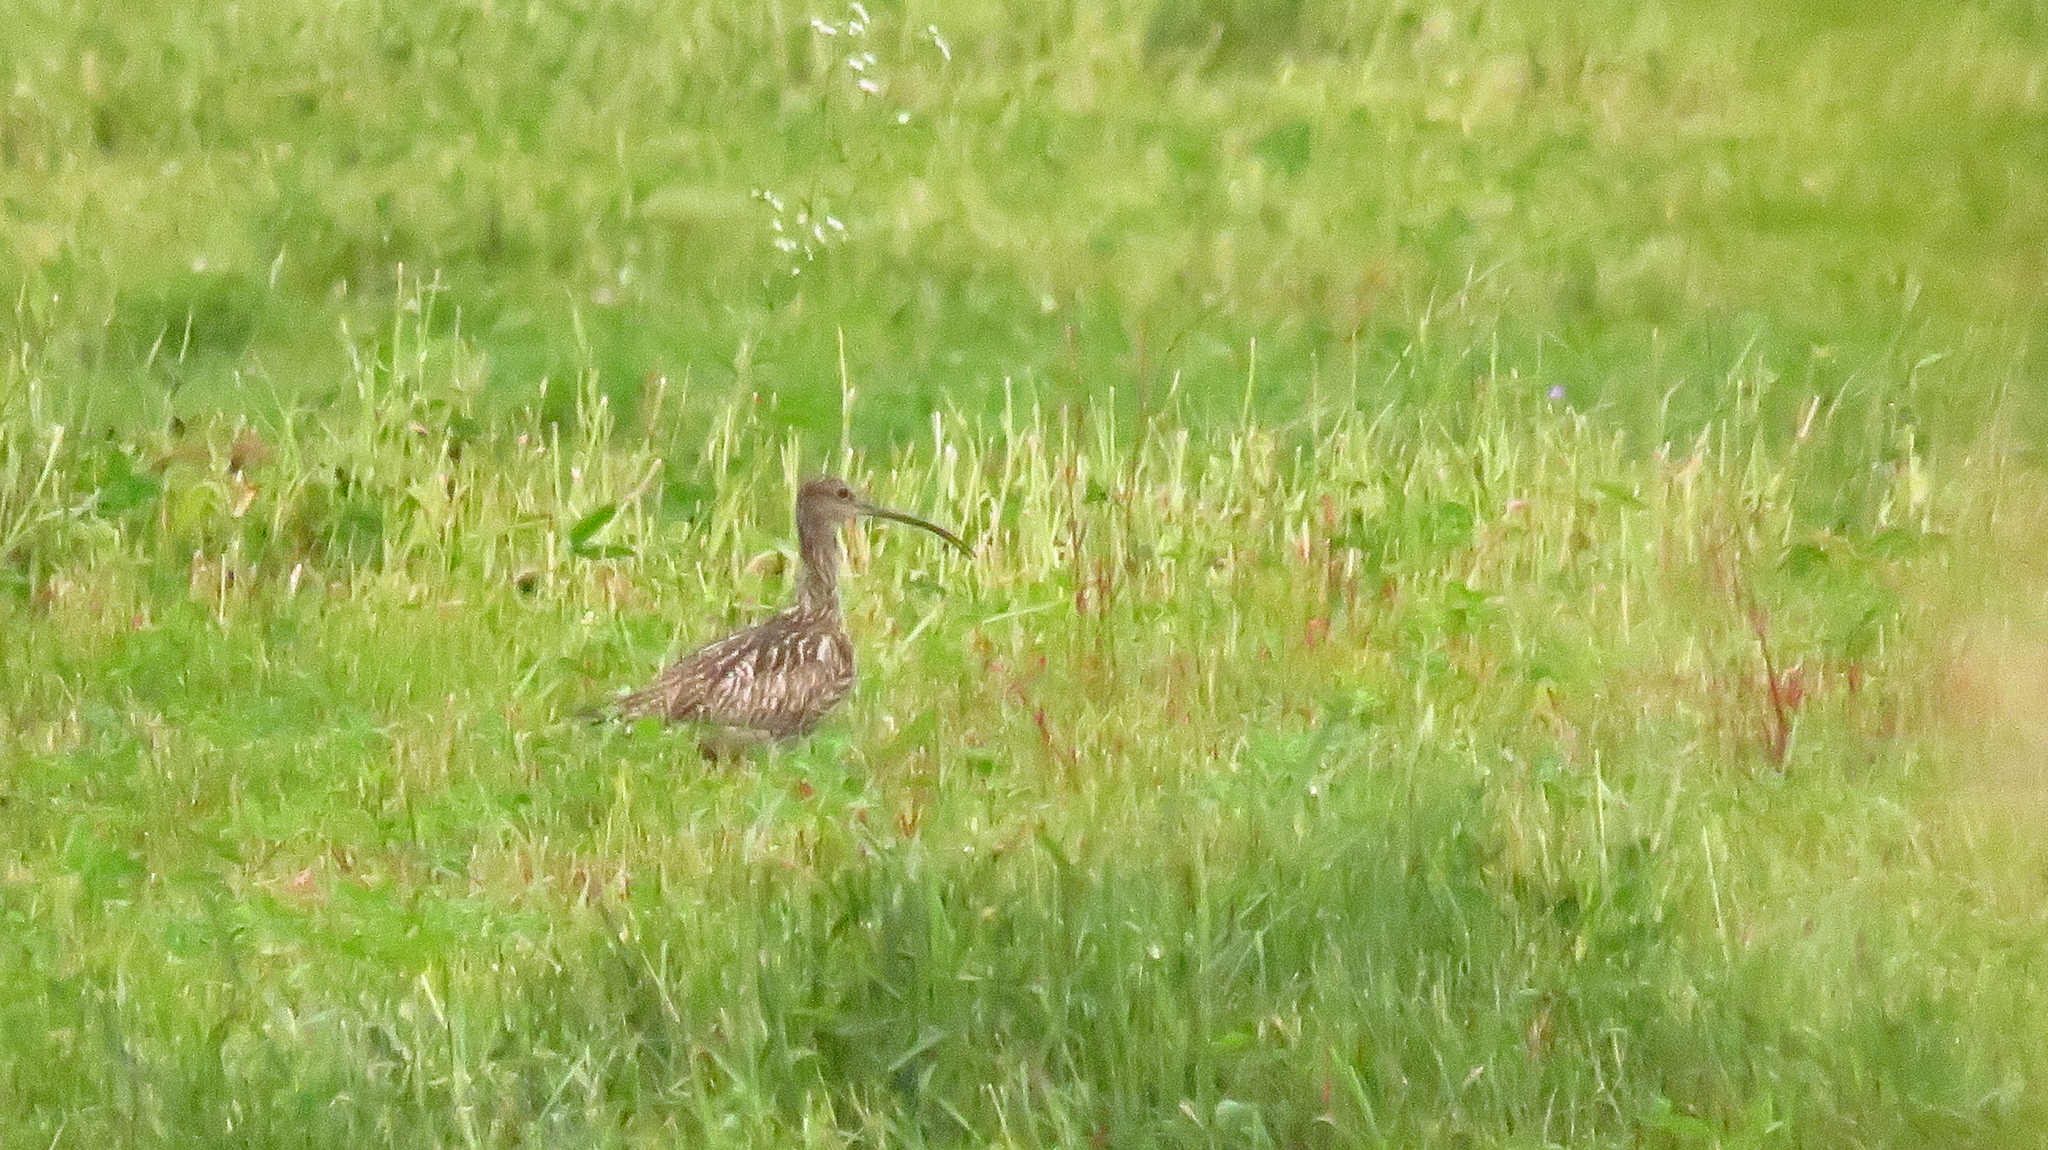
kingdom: Animalia
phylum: Chordata
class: Aves
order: Charadriiformes
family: Scolopacidae
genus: Numenius
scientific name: Numenius arquata
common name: Eurasian curlew
